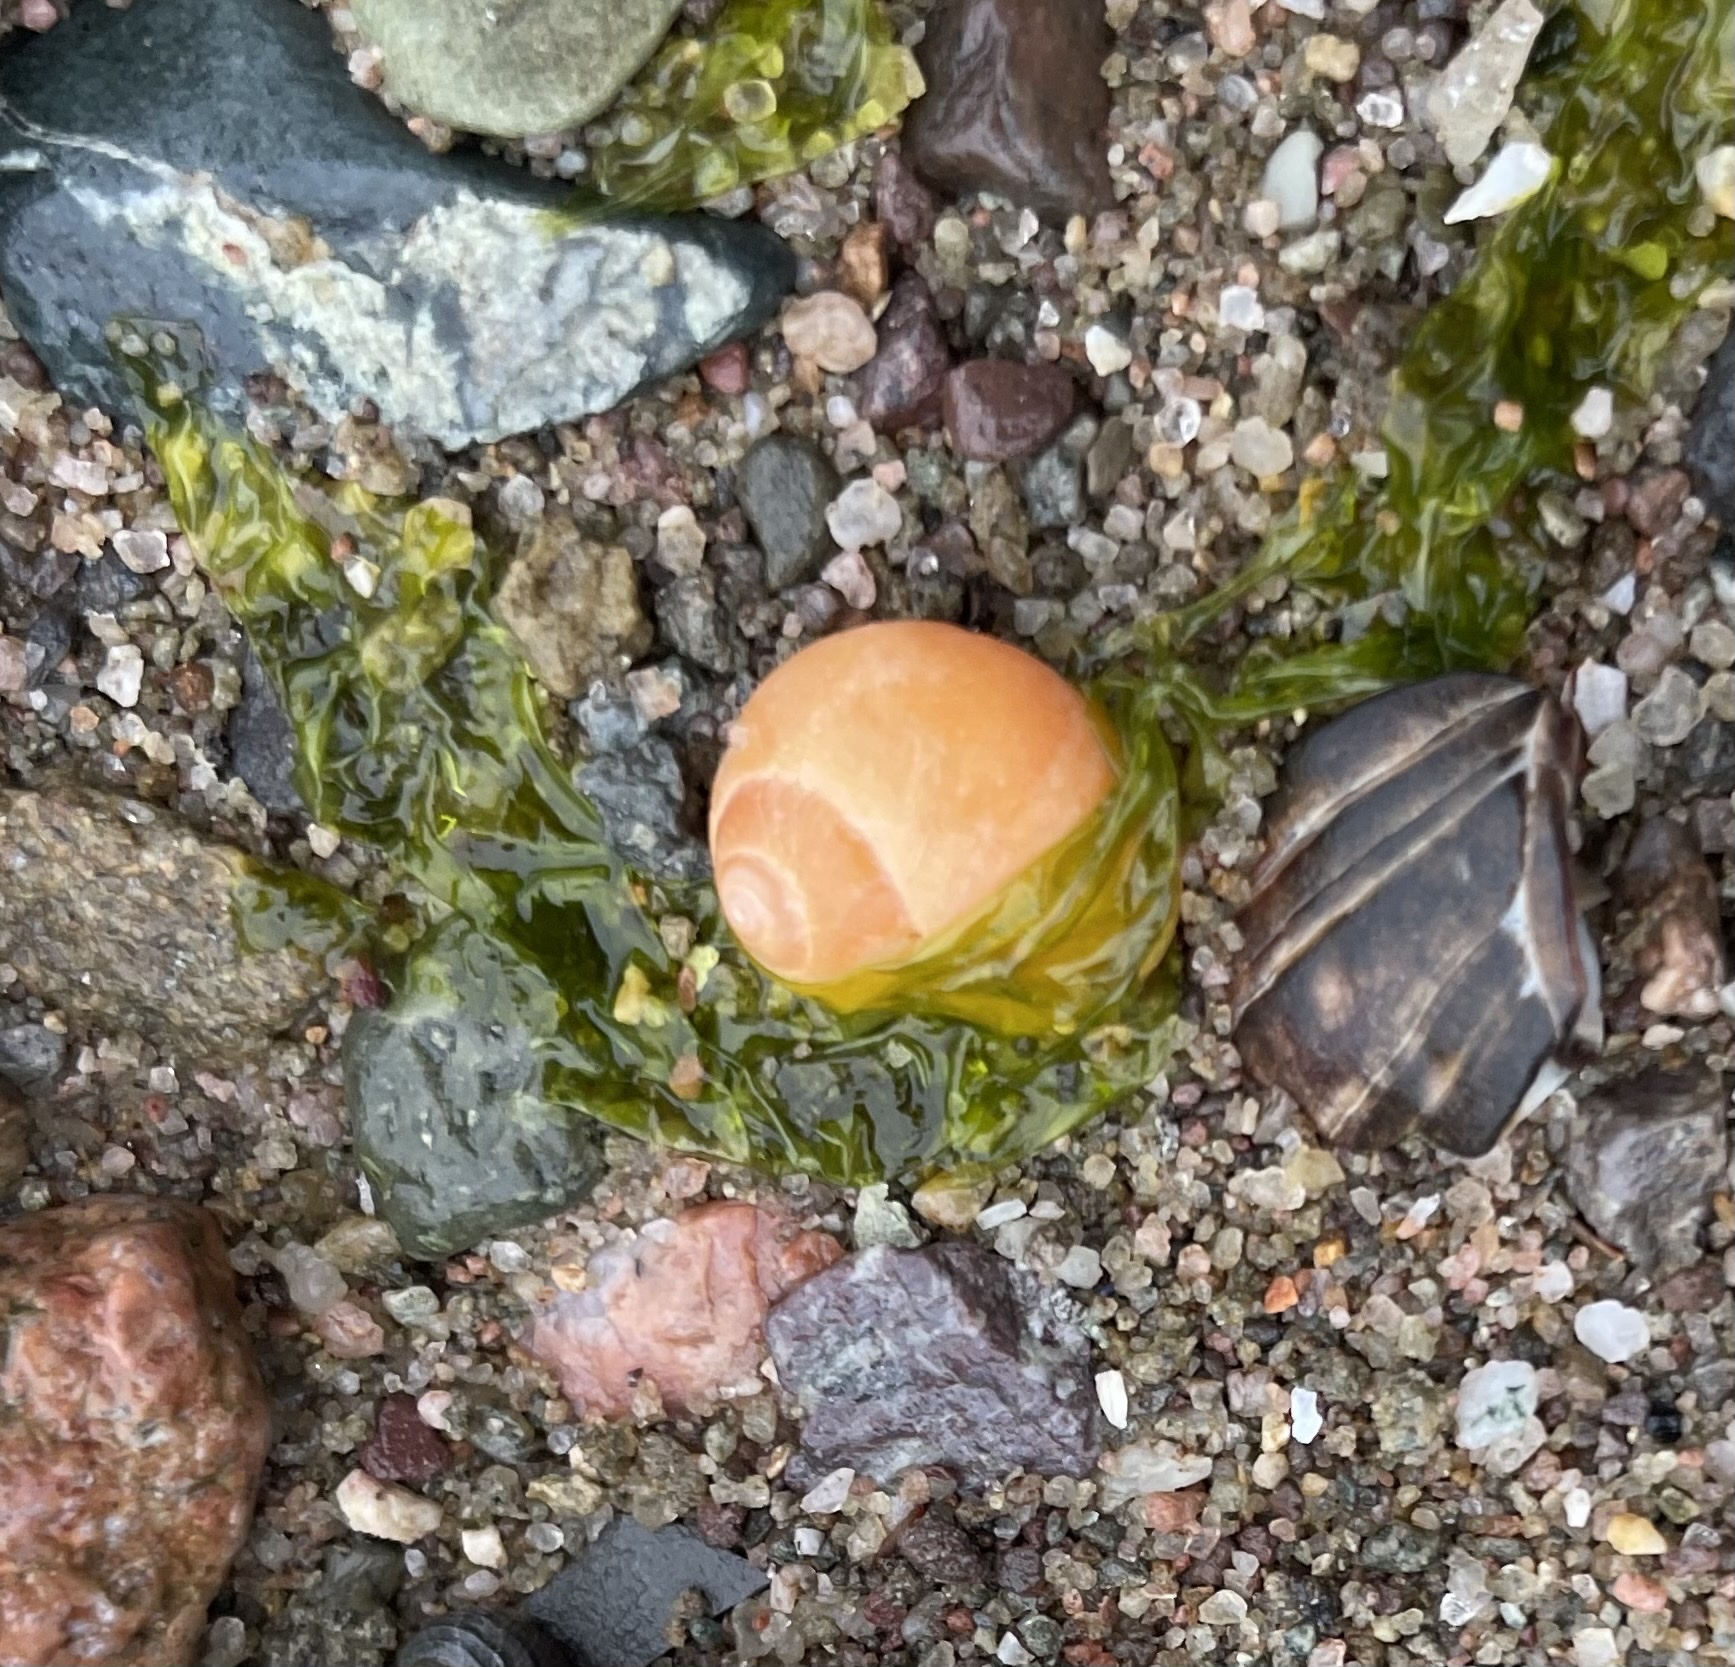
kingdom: Animalia
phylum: Mollusca
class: Gastropoda
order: Littorinimorpha
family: Littorinidae
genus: Littorina
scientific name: Littorina obtusata
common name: Flat periwinkle
